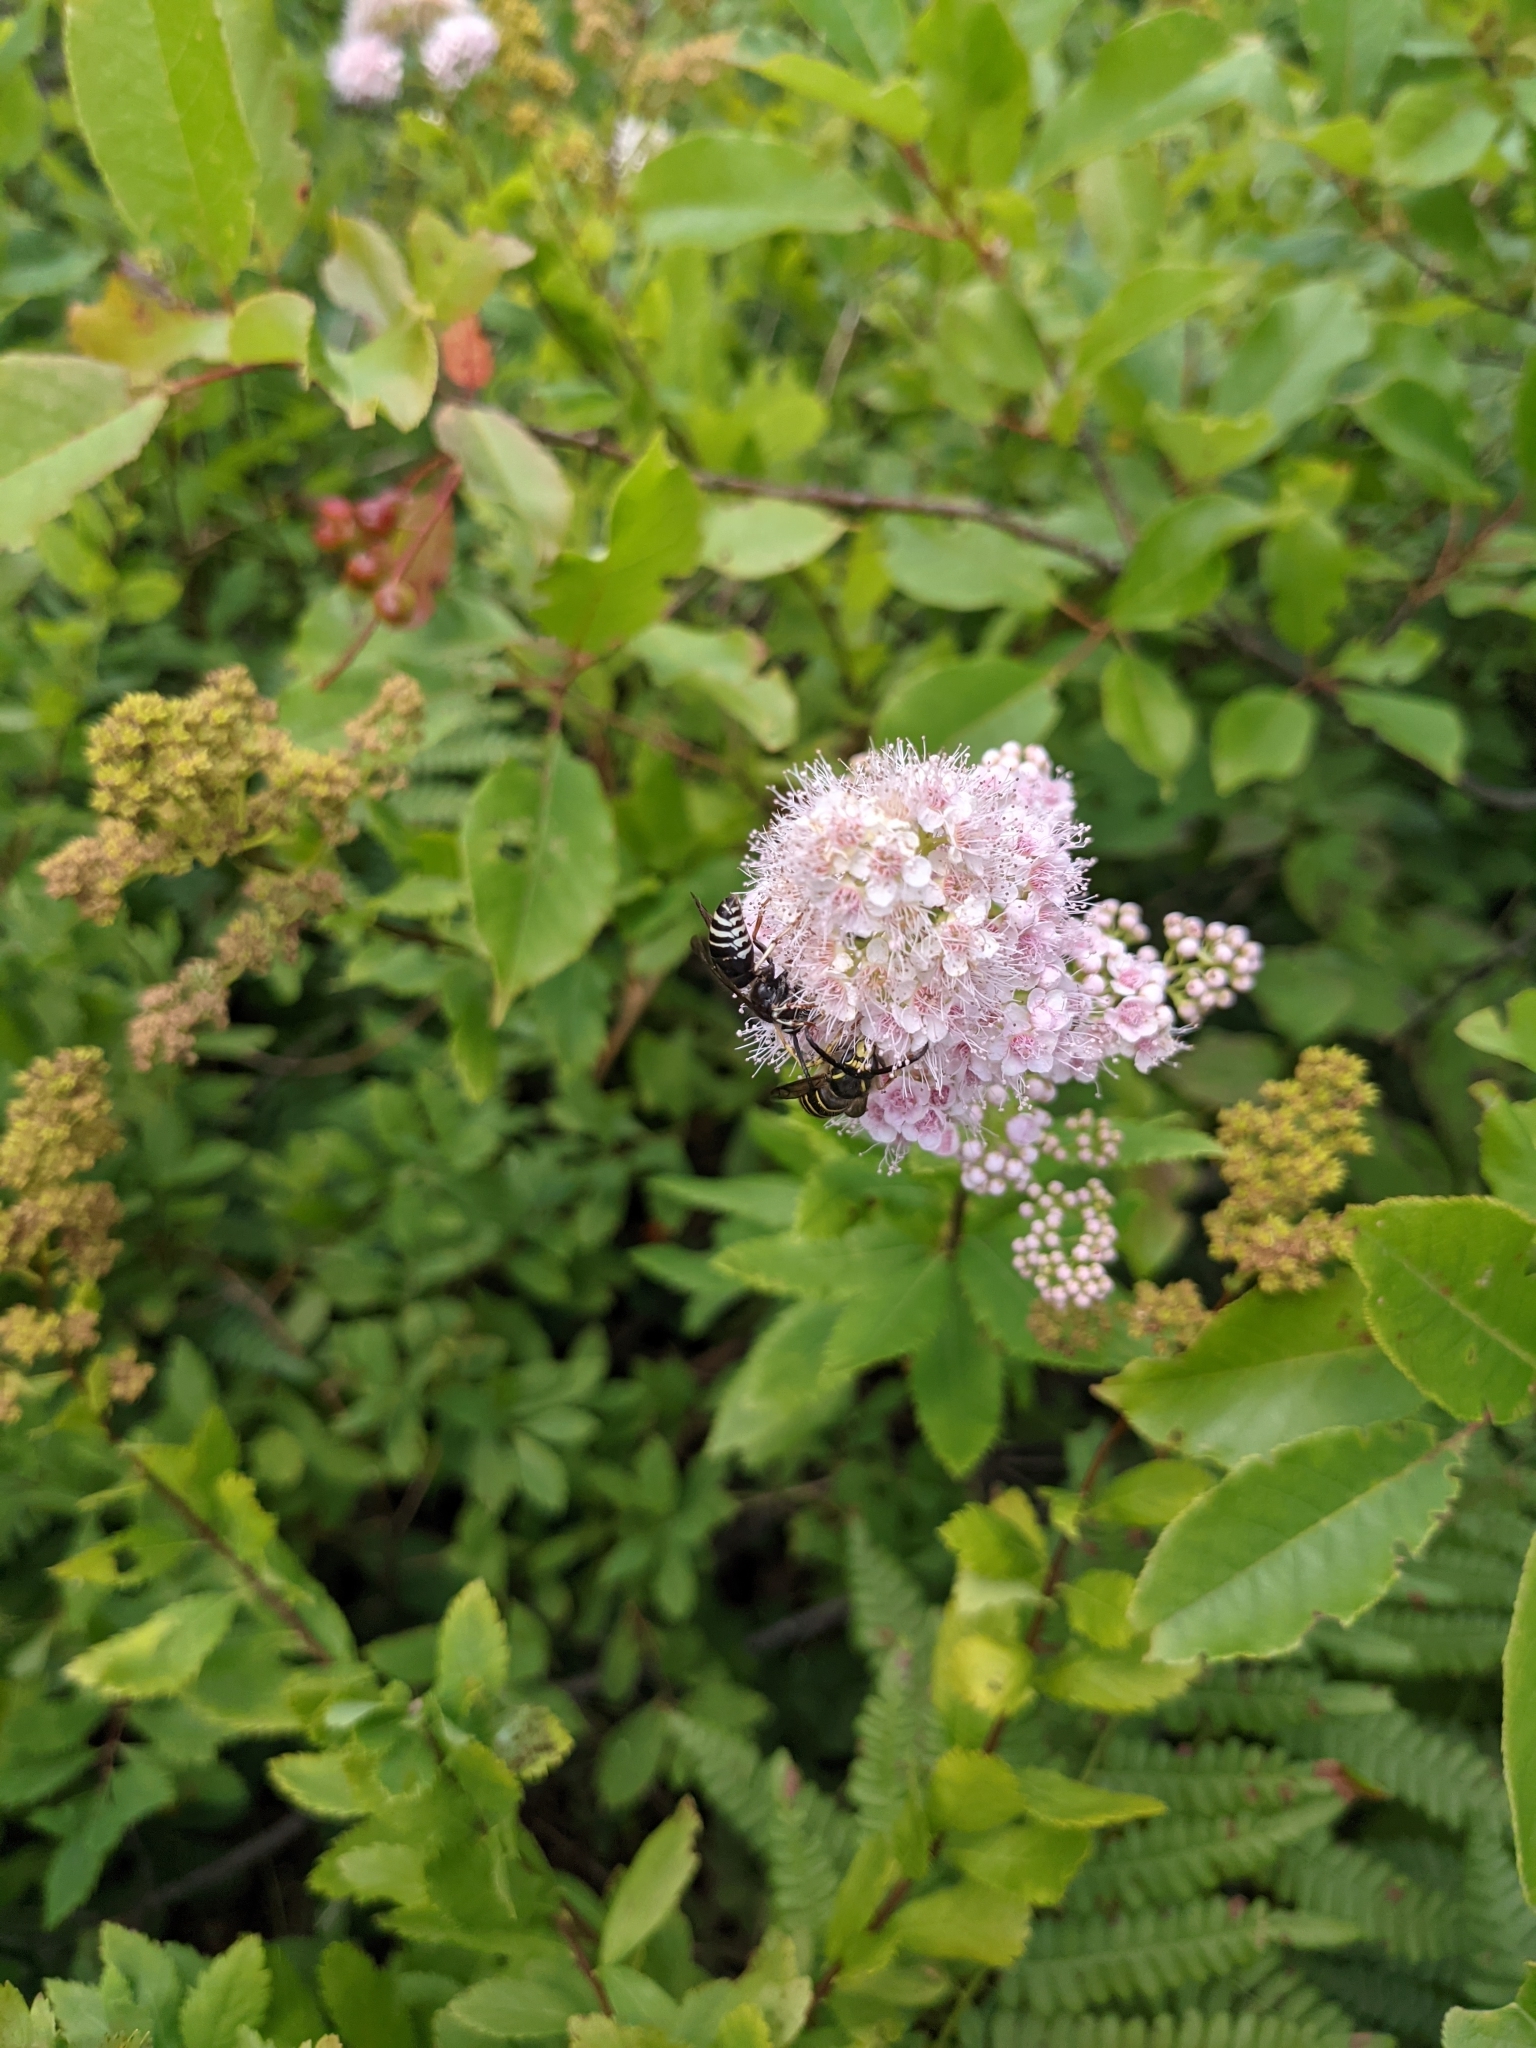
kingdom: Plantae
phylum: Tracheophyta
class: Magnoliopsida
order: Rosales
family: Rosaceae
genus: Spiraea
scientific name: Spiraea alba
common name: Pale bridewort
